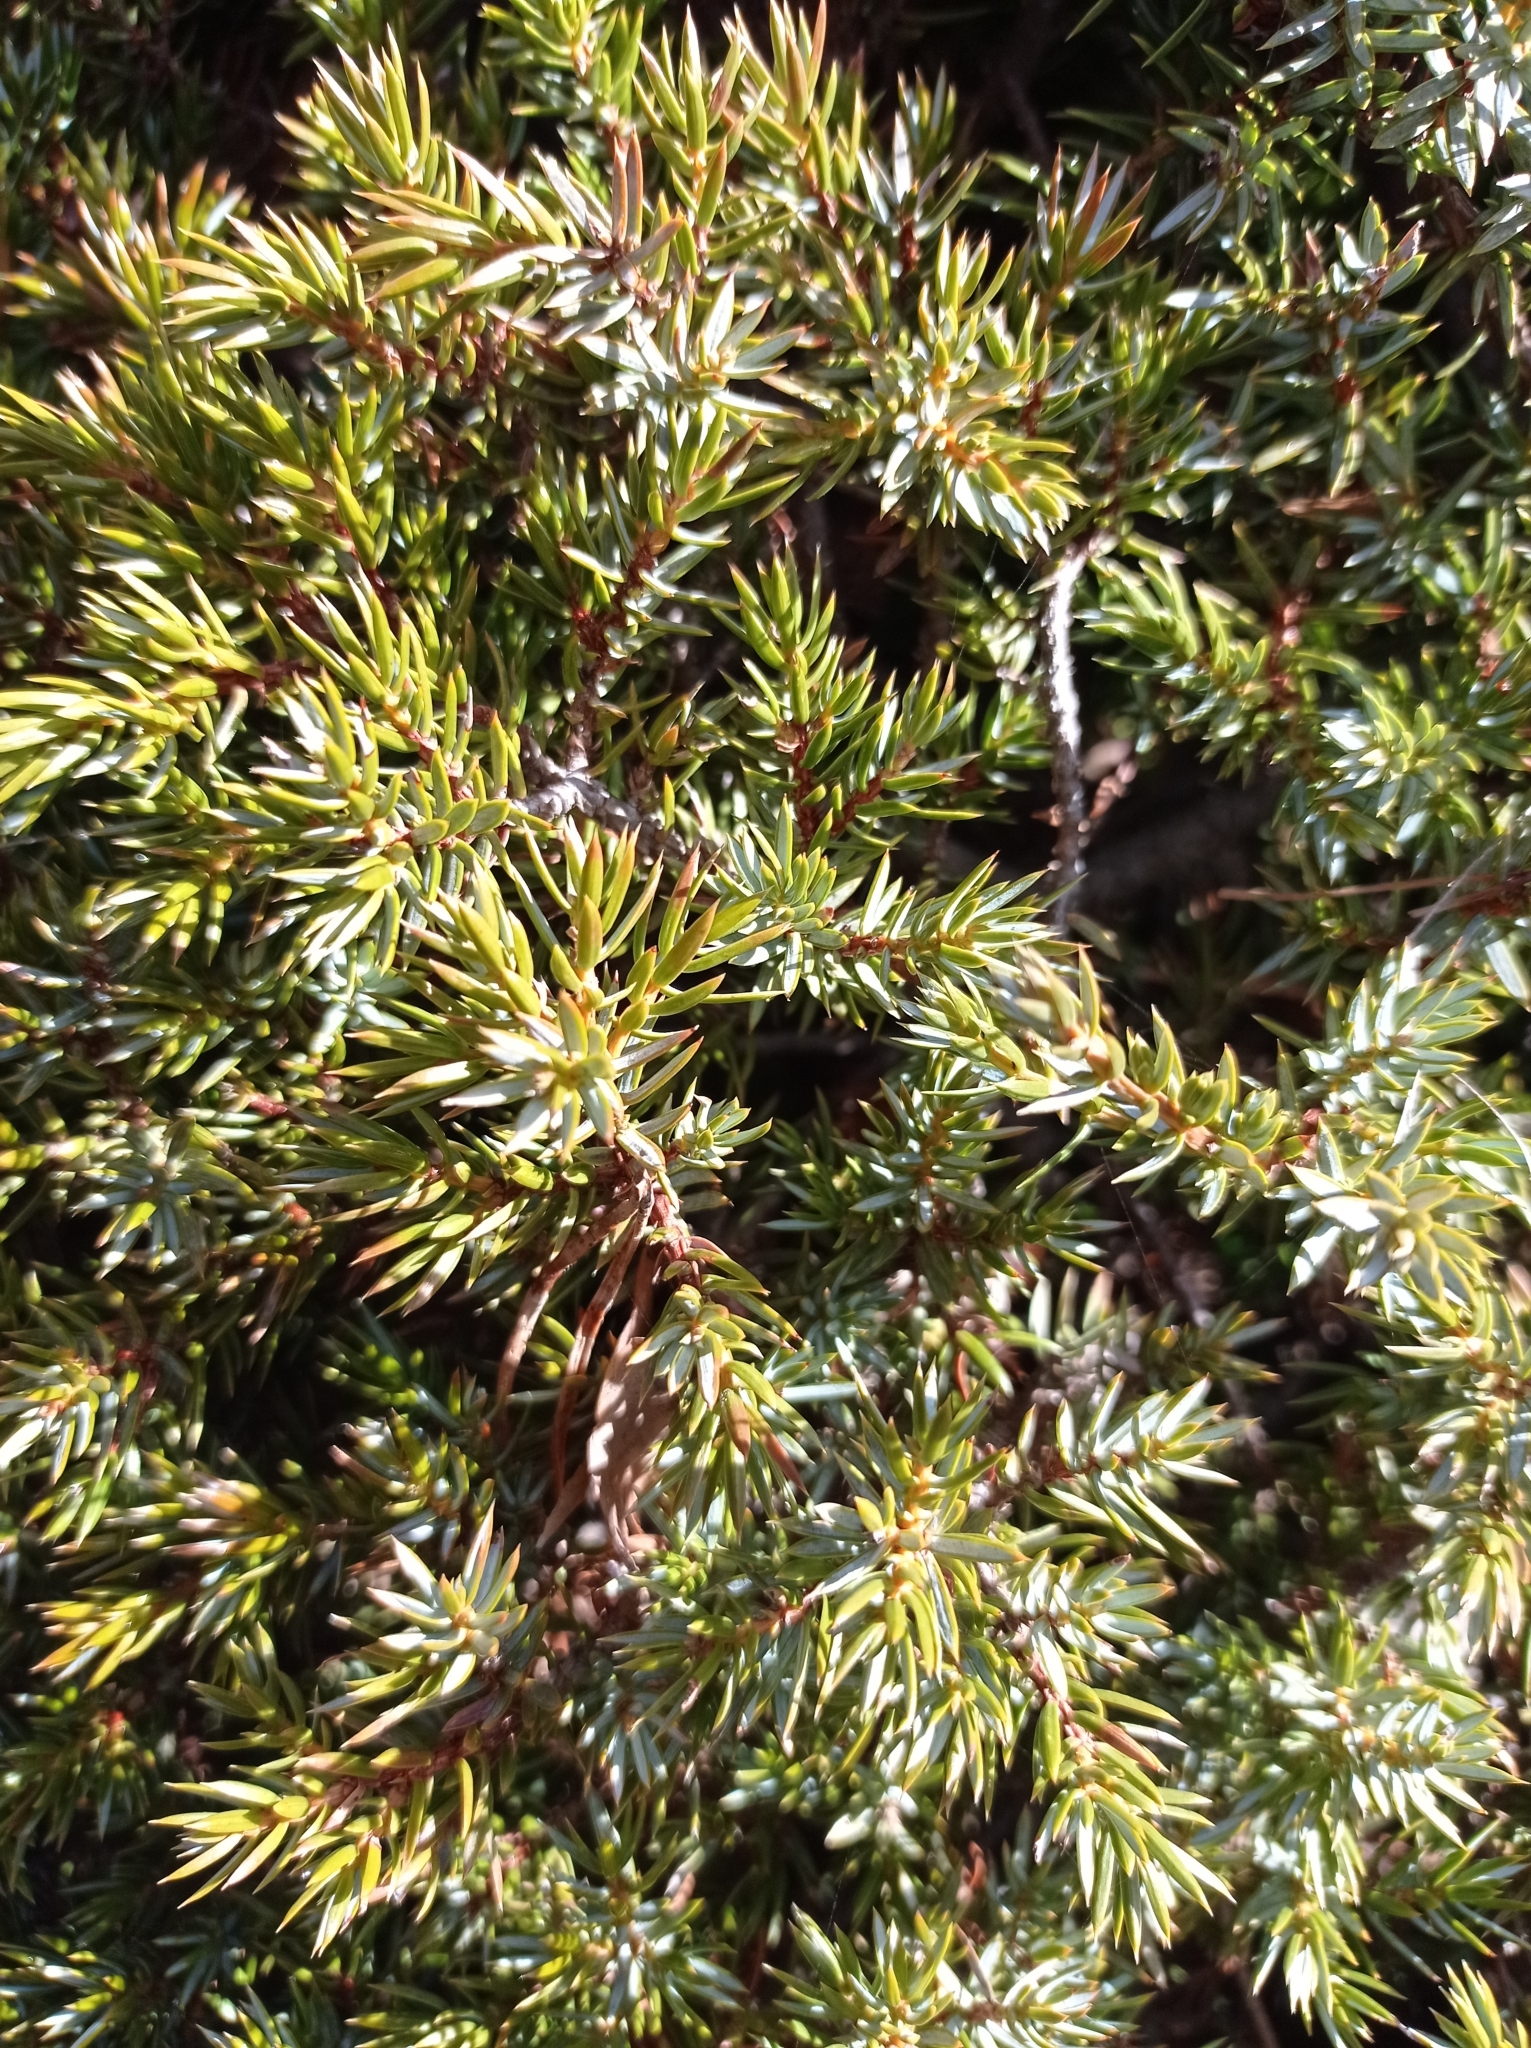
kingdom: Plantae
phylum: Tracheophyta
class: Pinopsida
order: Pinales
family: Cupressaceae
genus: Juniperus
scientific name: Juniperus communis
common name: Common juniper
